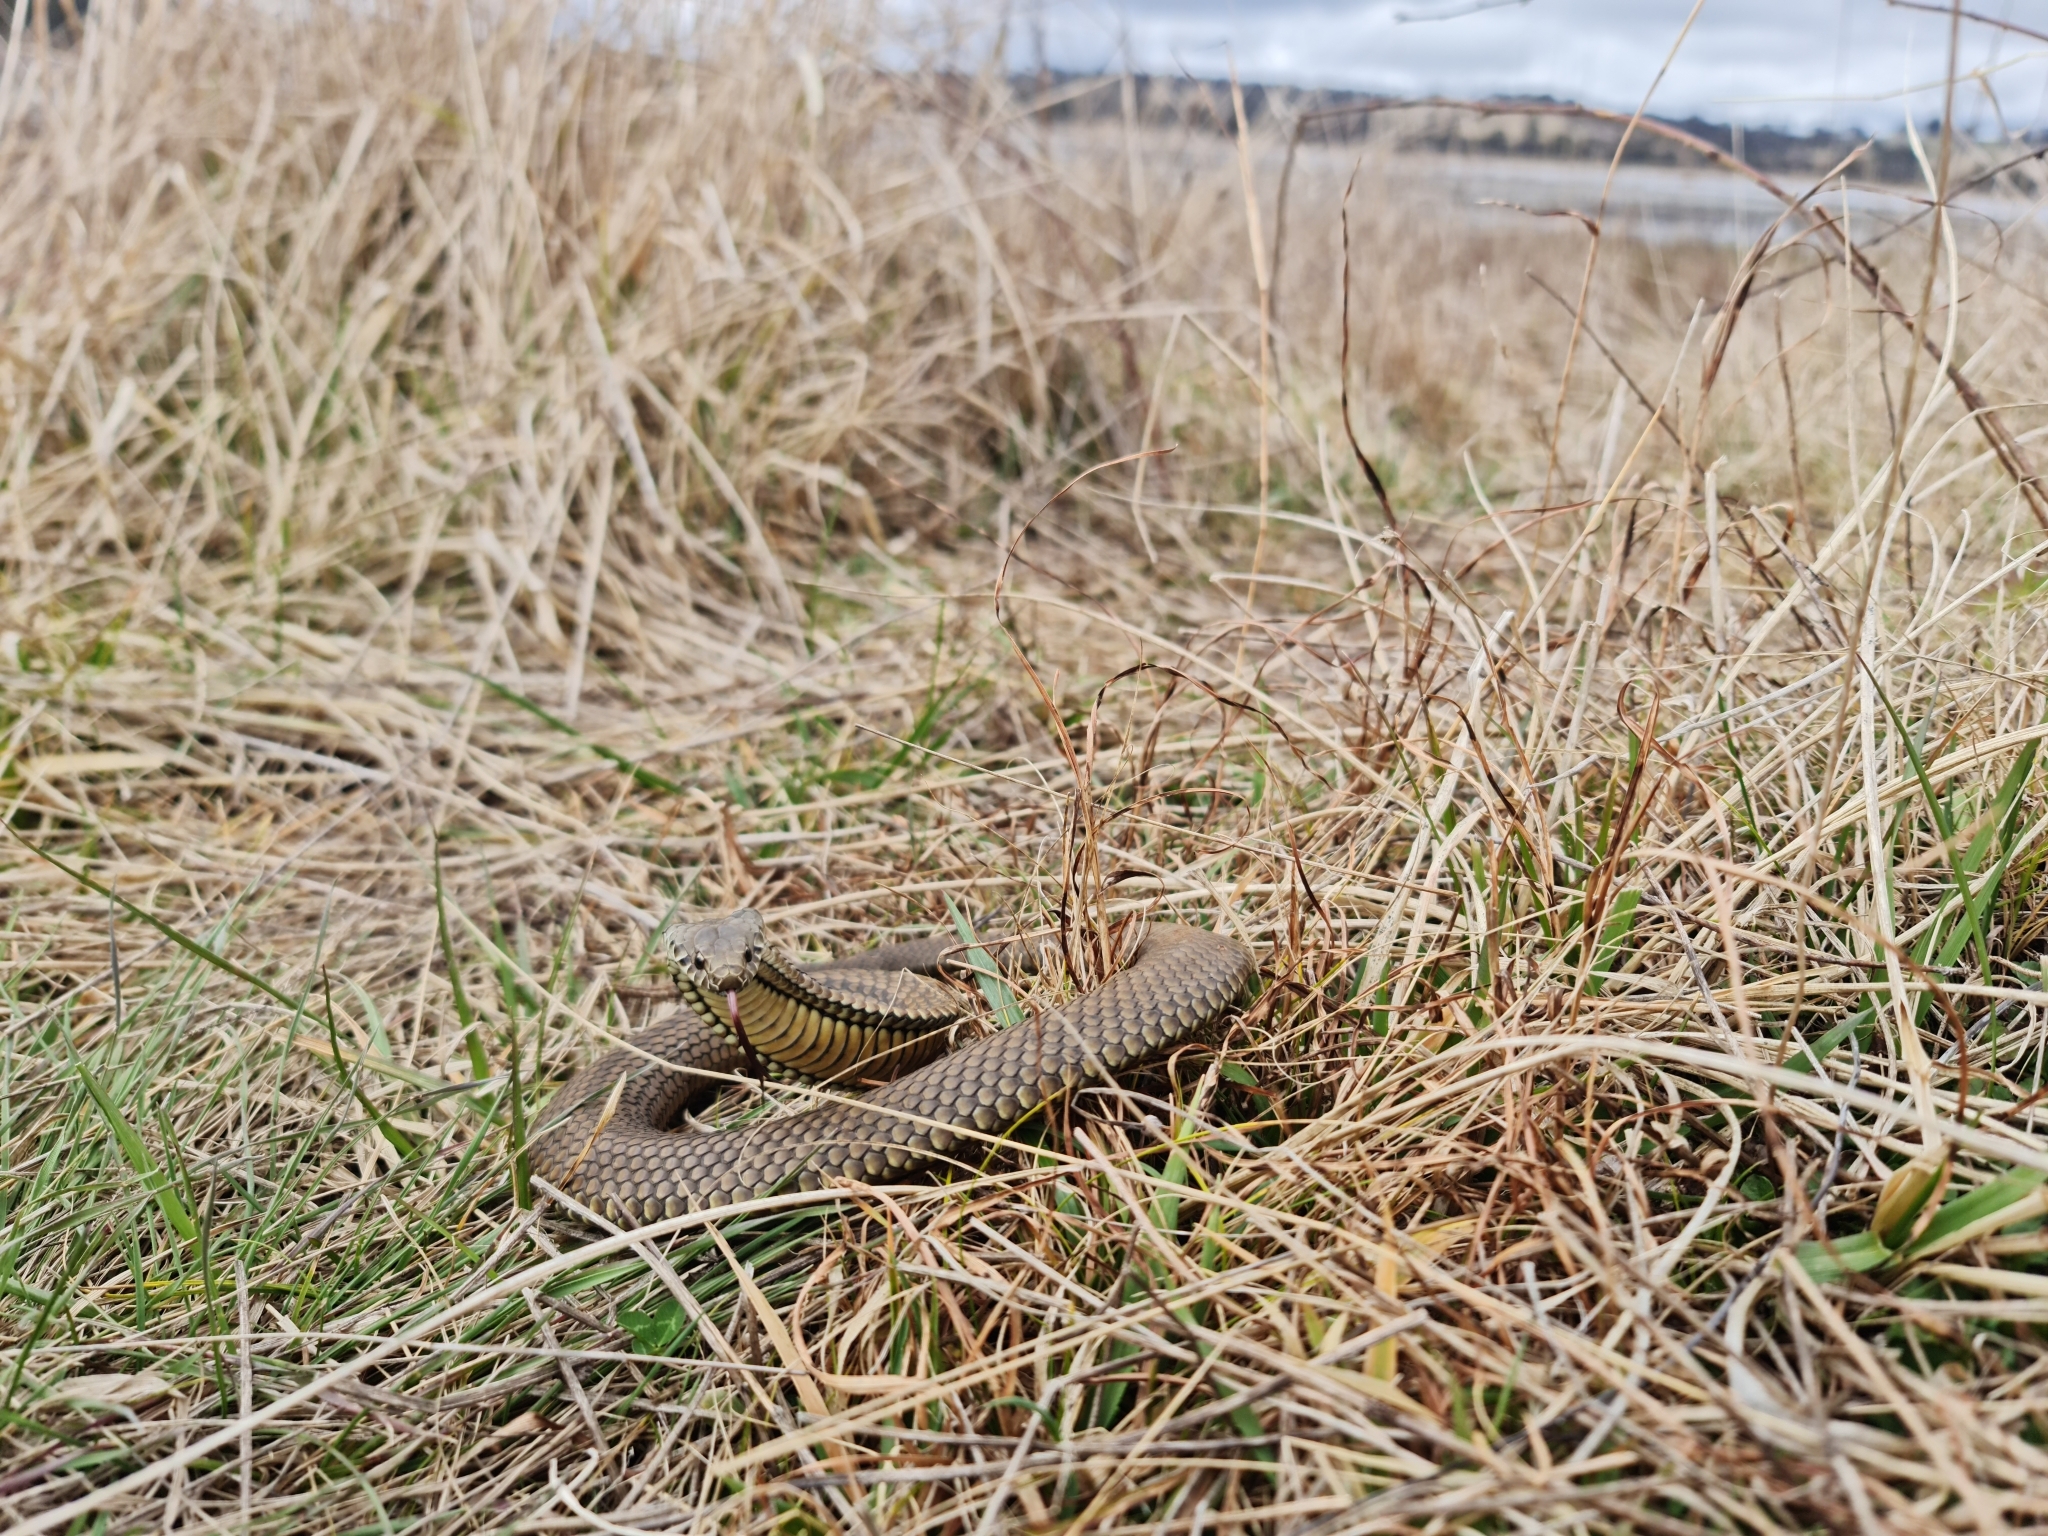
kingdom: Animalia
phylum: Chordata
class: Squamata
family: Elapidae
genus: Austrelaps
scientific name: Austrelaps ramsayi
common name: Highlands copperhead
